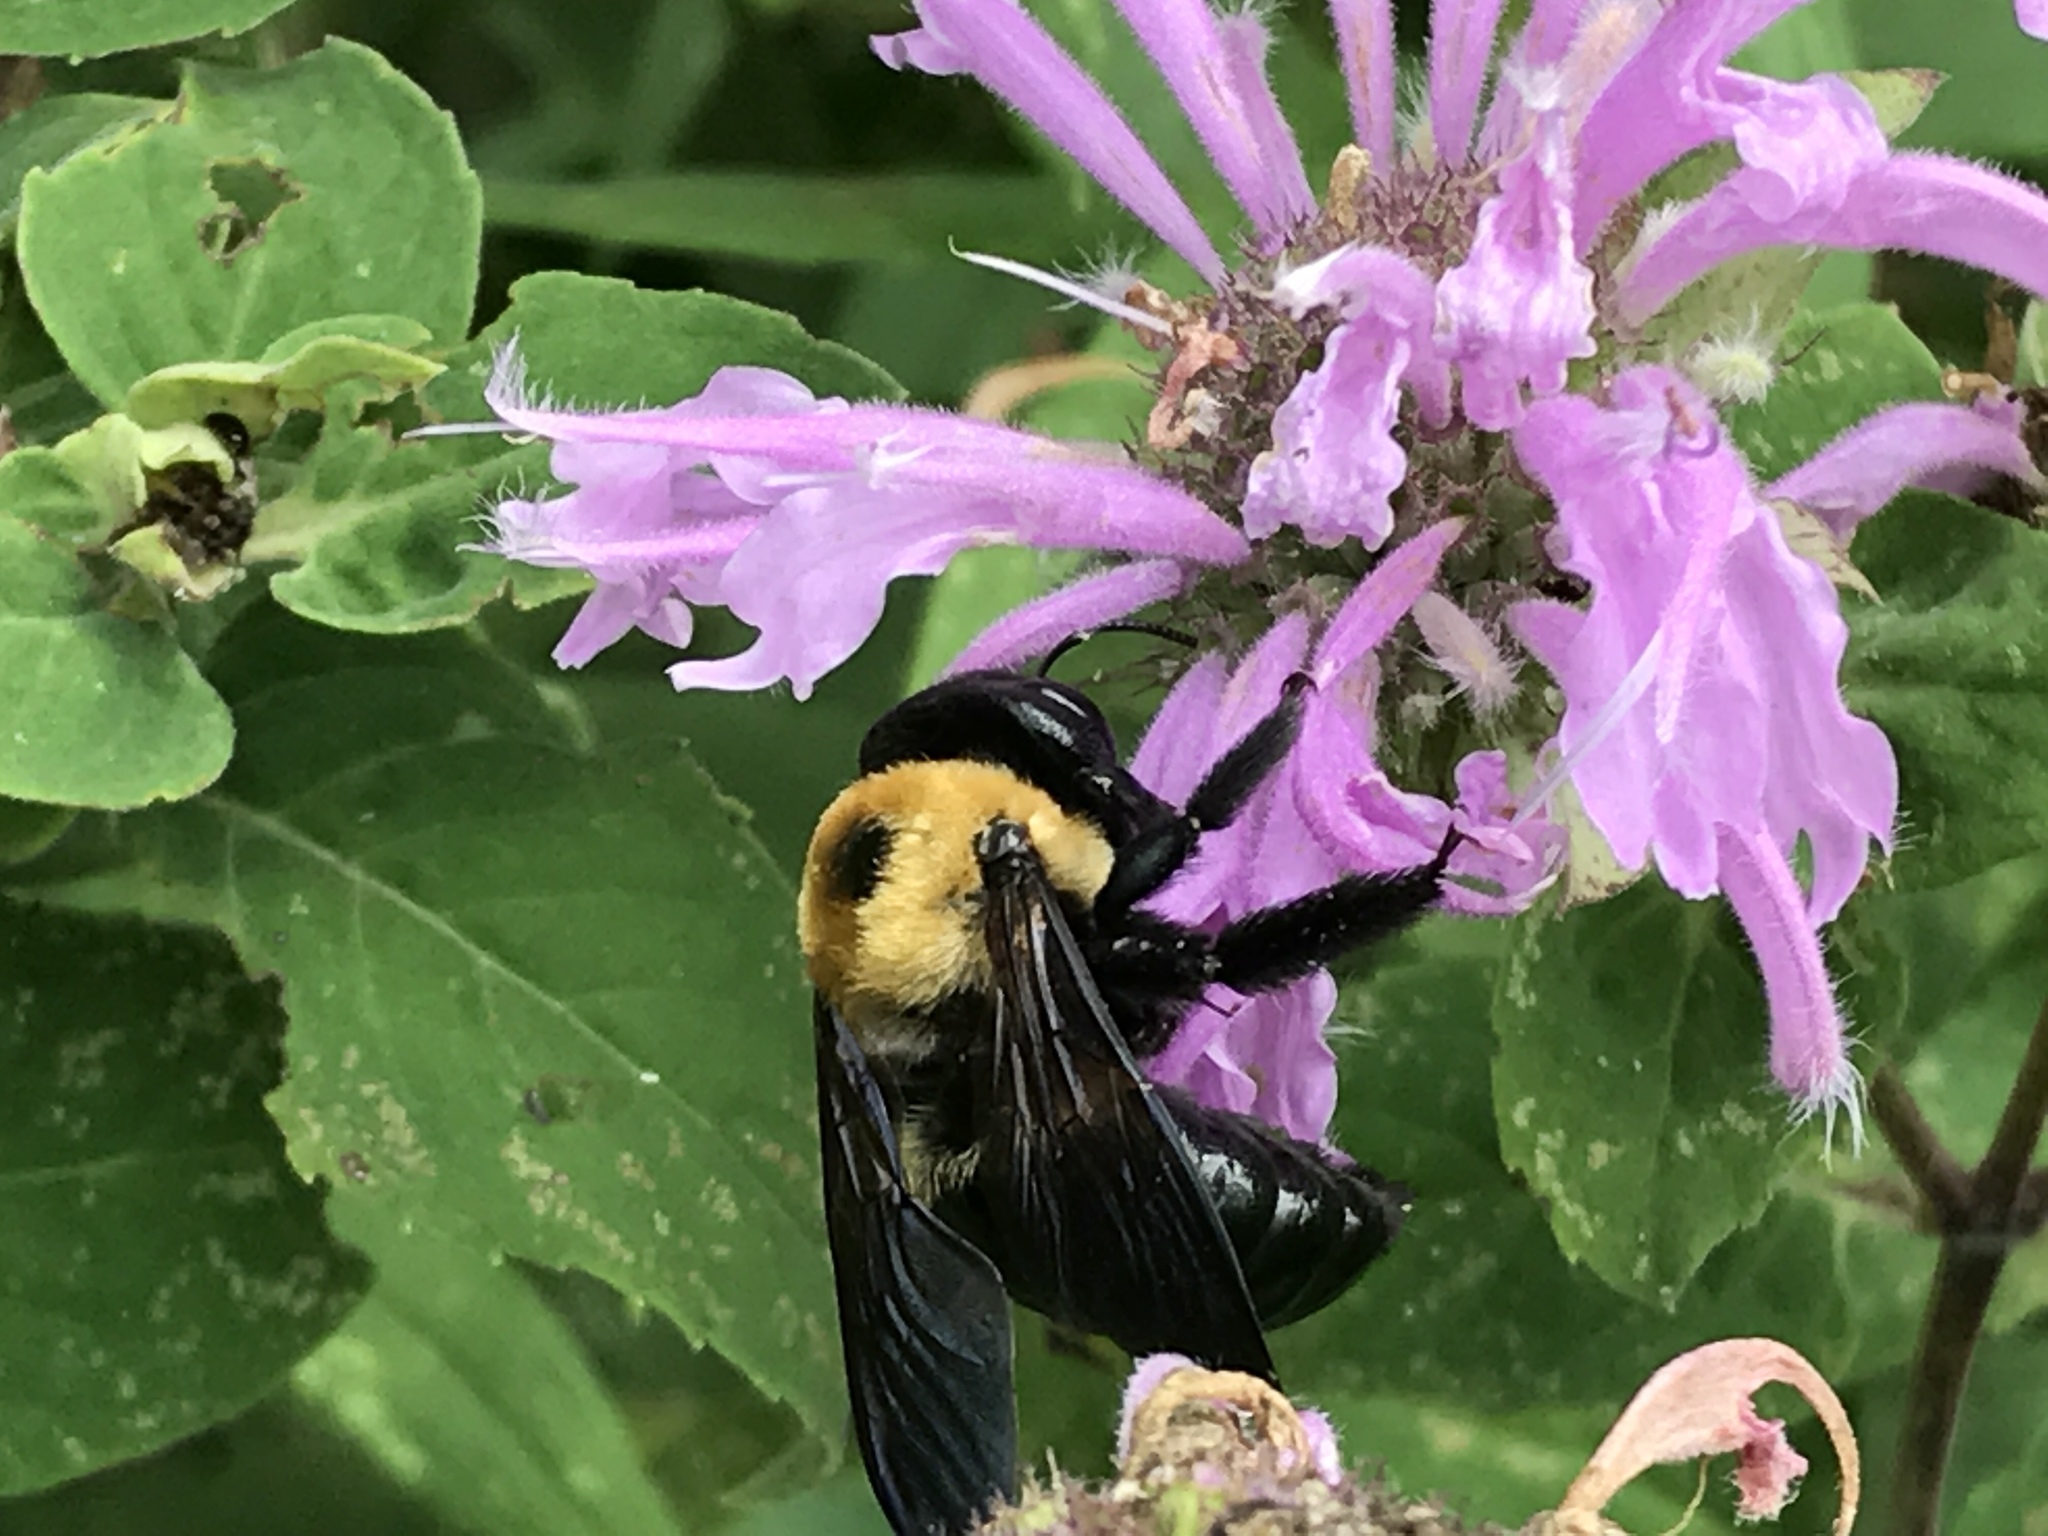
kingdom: Animalia
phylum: Arthropoda
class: Insecta
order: Hymenoptera
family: Apidae
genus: Xylocopa
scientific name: Xylocopa virginica
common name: Carpenter bee
